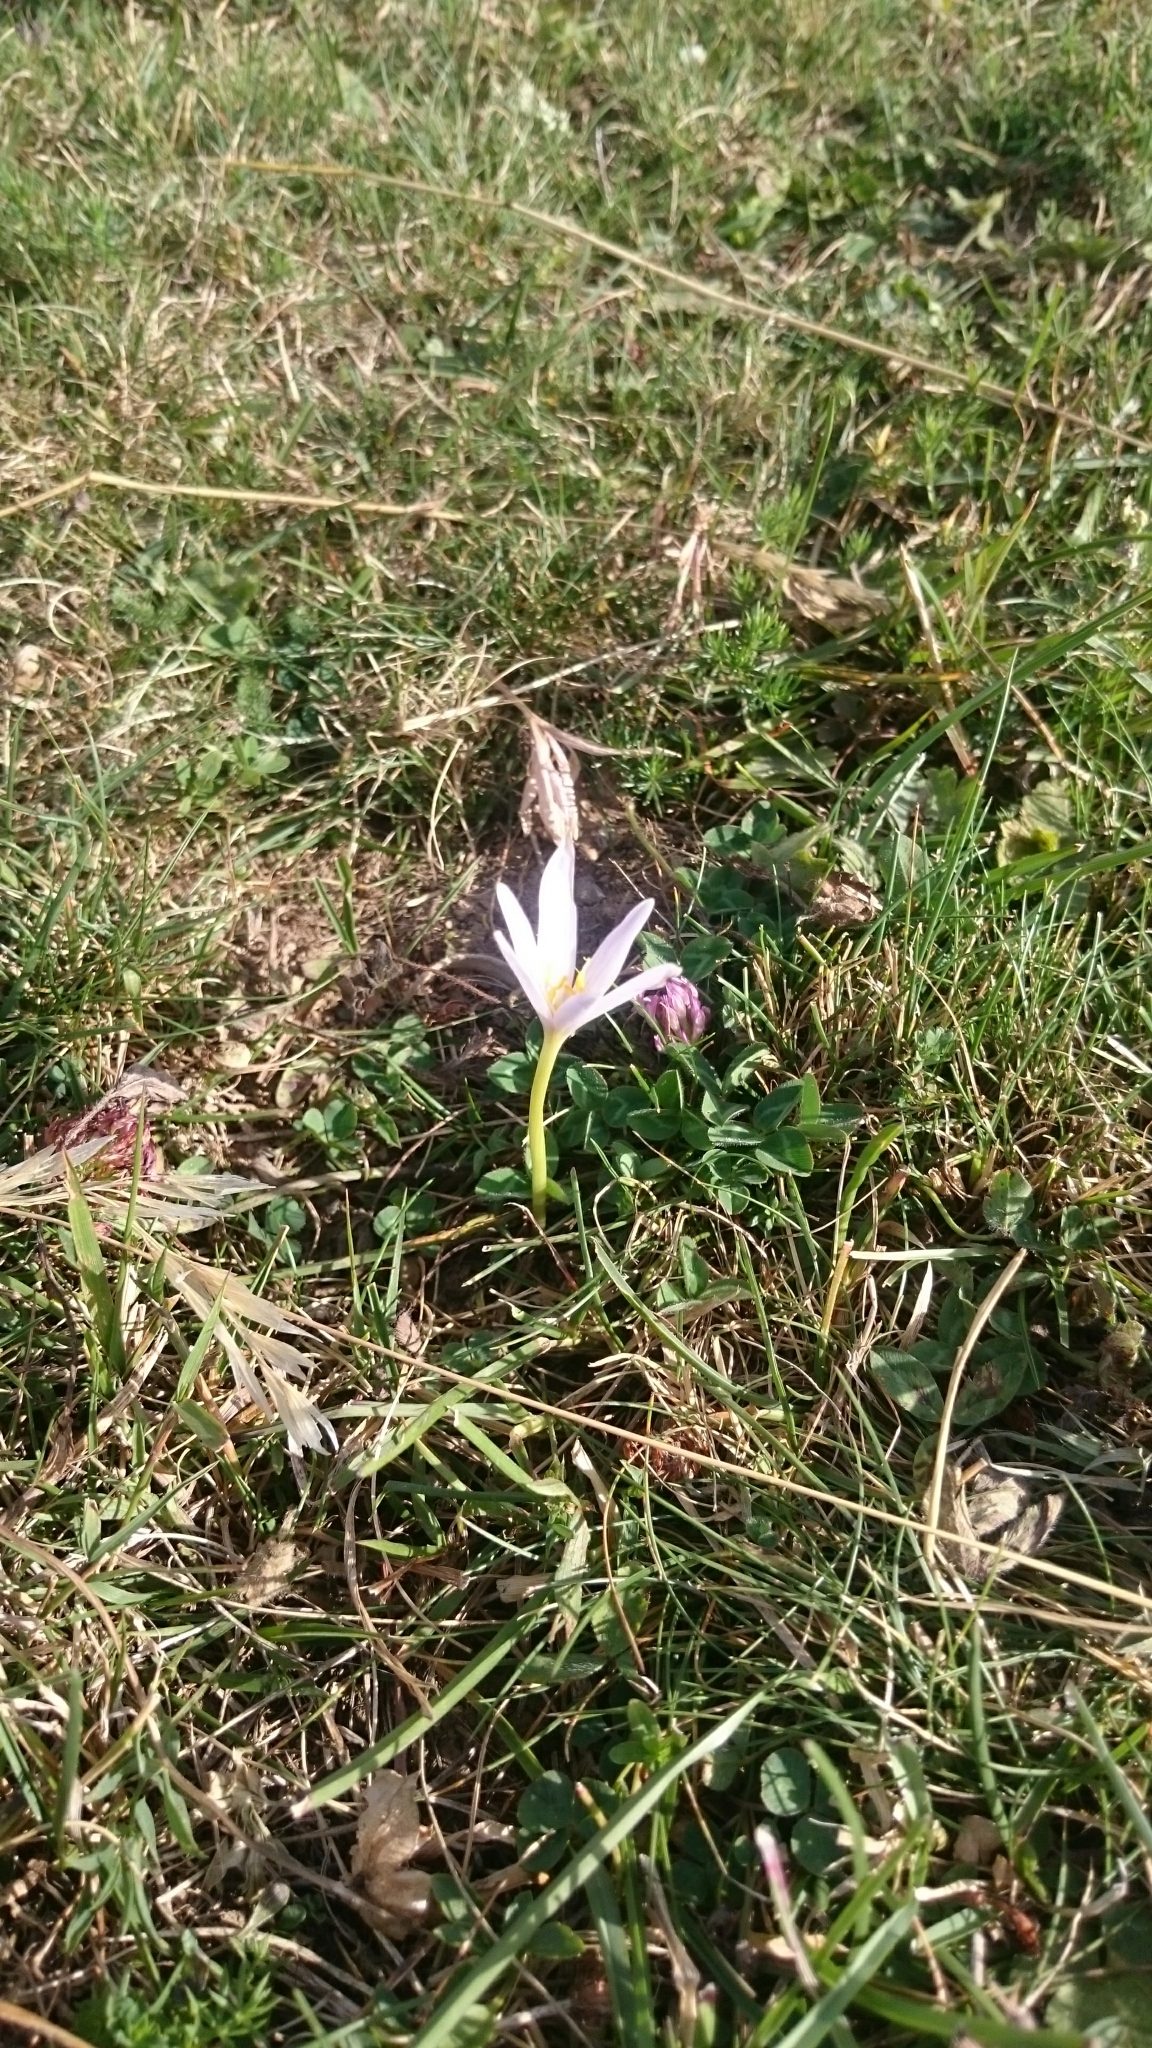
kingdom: Plantae
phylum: Tracheophyta
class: Liliopsida
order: Liliales
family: Colchicaceae
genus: Colchicum
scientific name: Colchicum autumnale
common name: Autumn crocus
